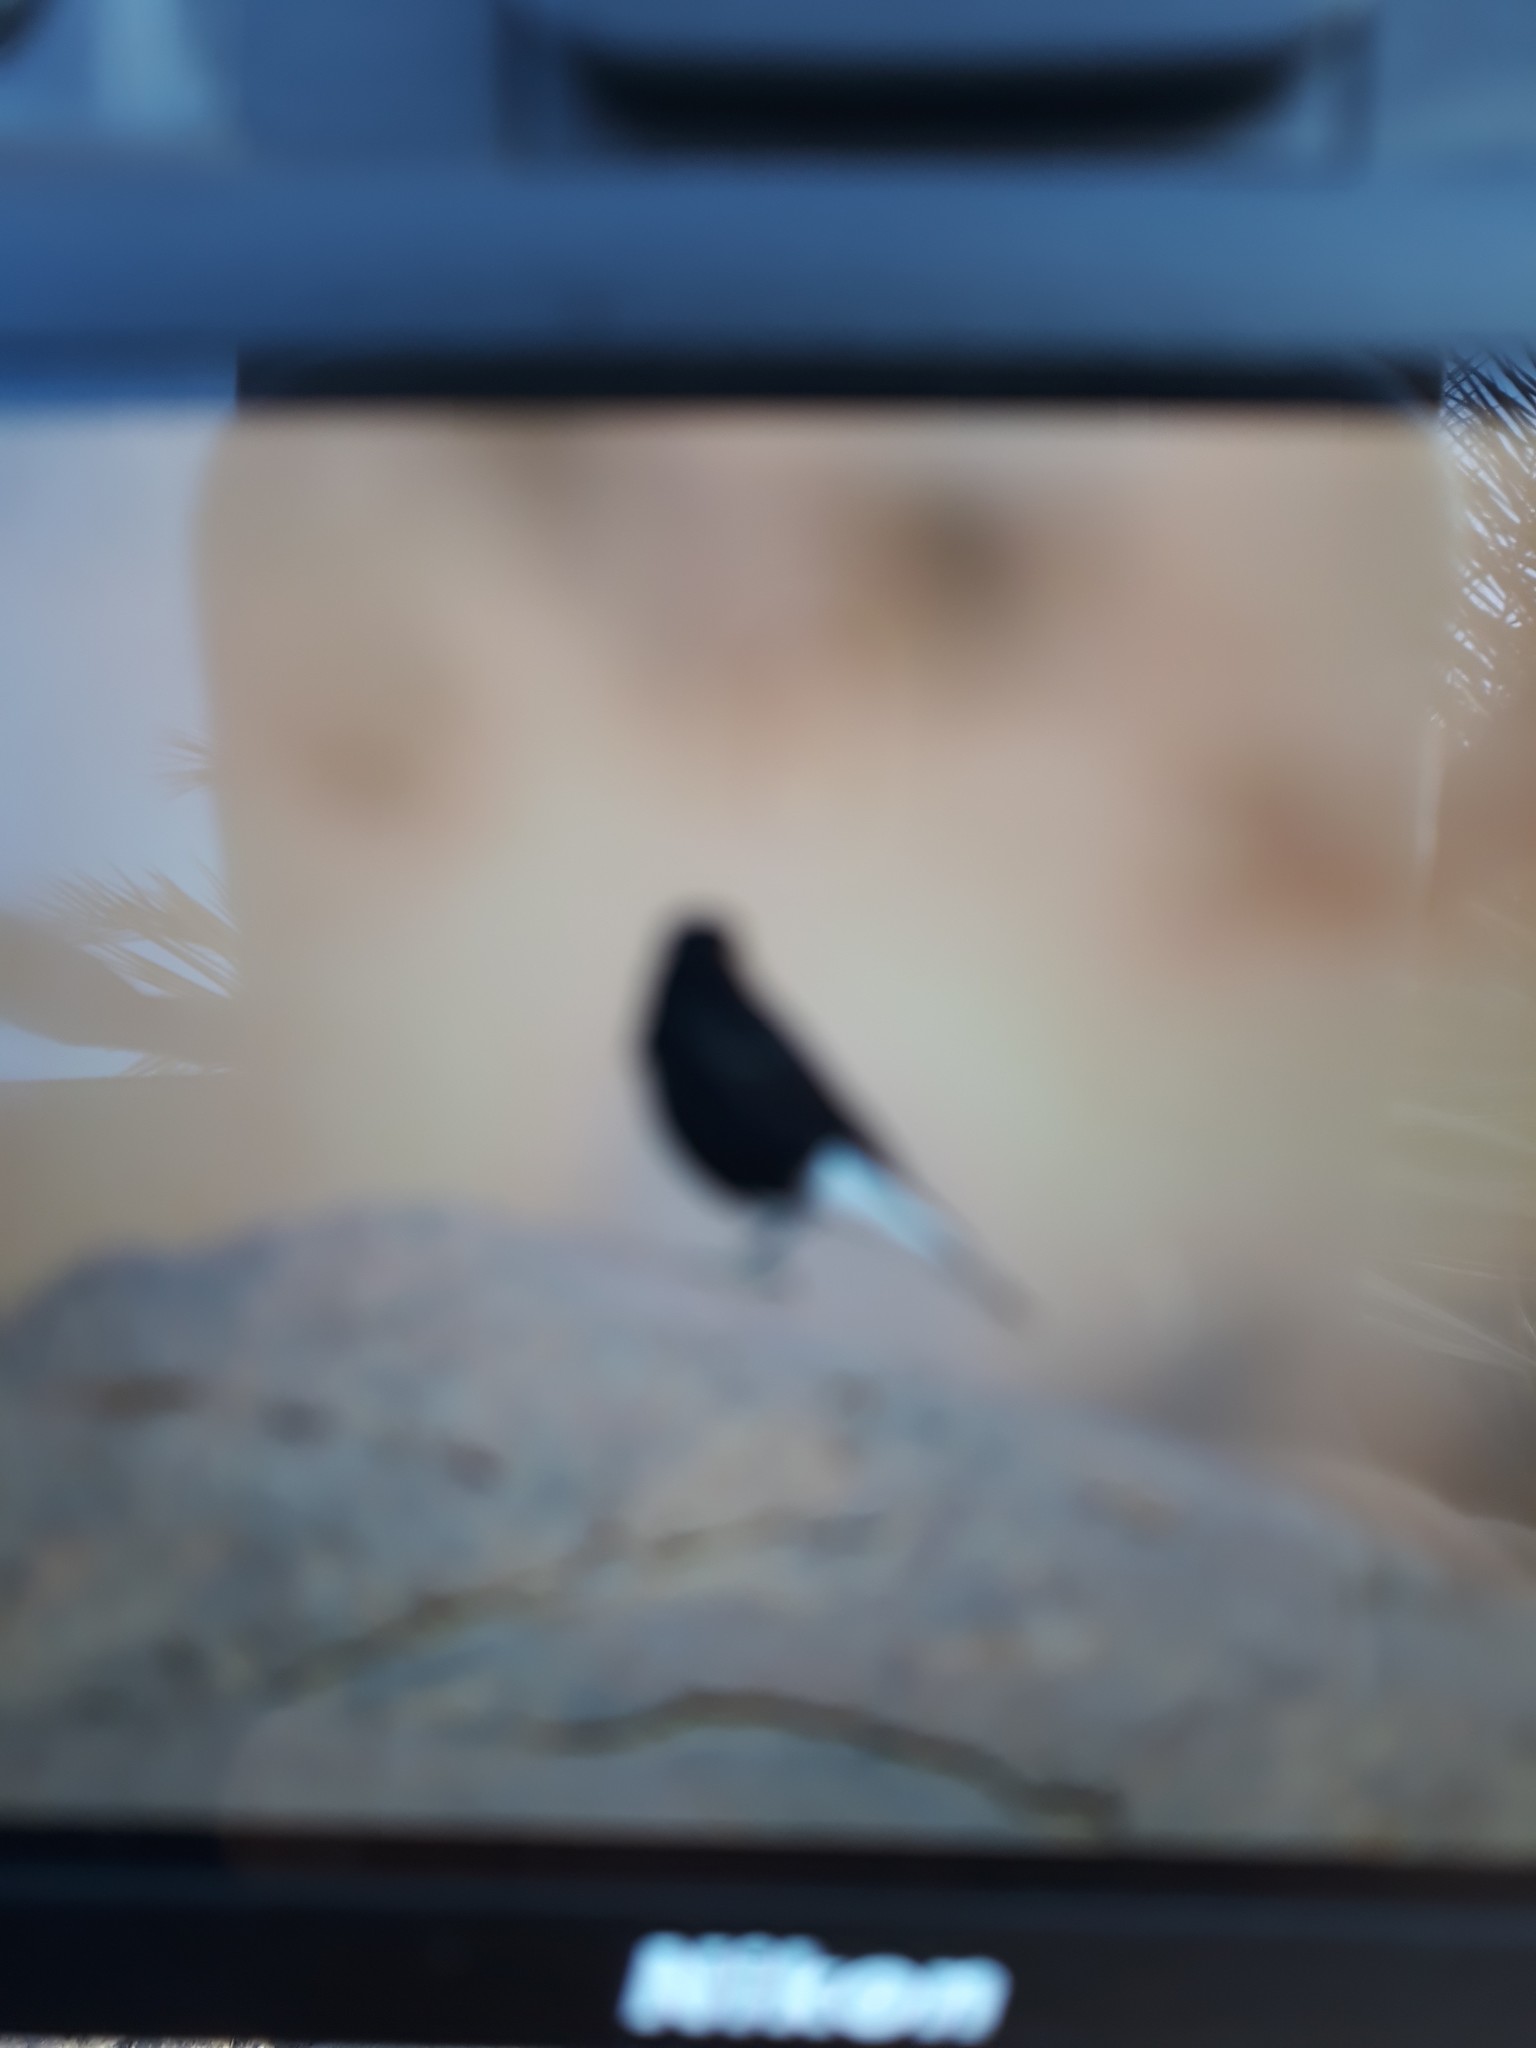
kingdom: Animalia
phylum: Chordata
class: Aves
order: Passeriformes
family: Muscicapidae
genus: Oenanthe
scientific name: Oenanthe leucopyga
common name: White-crowned wheatear
